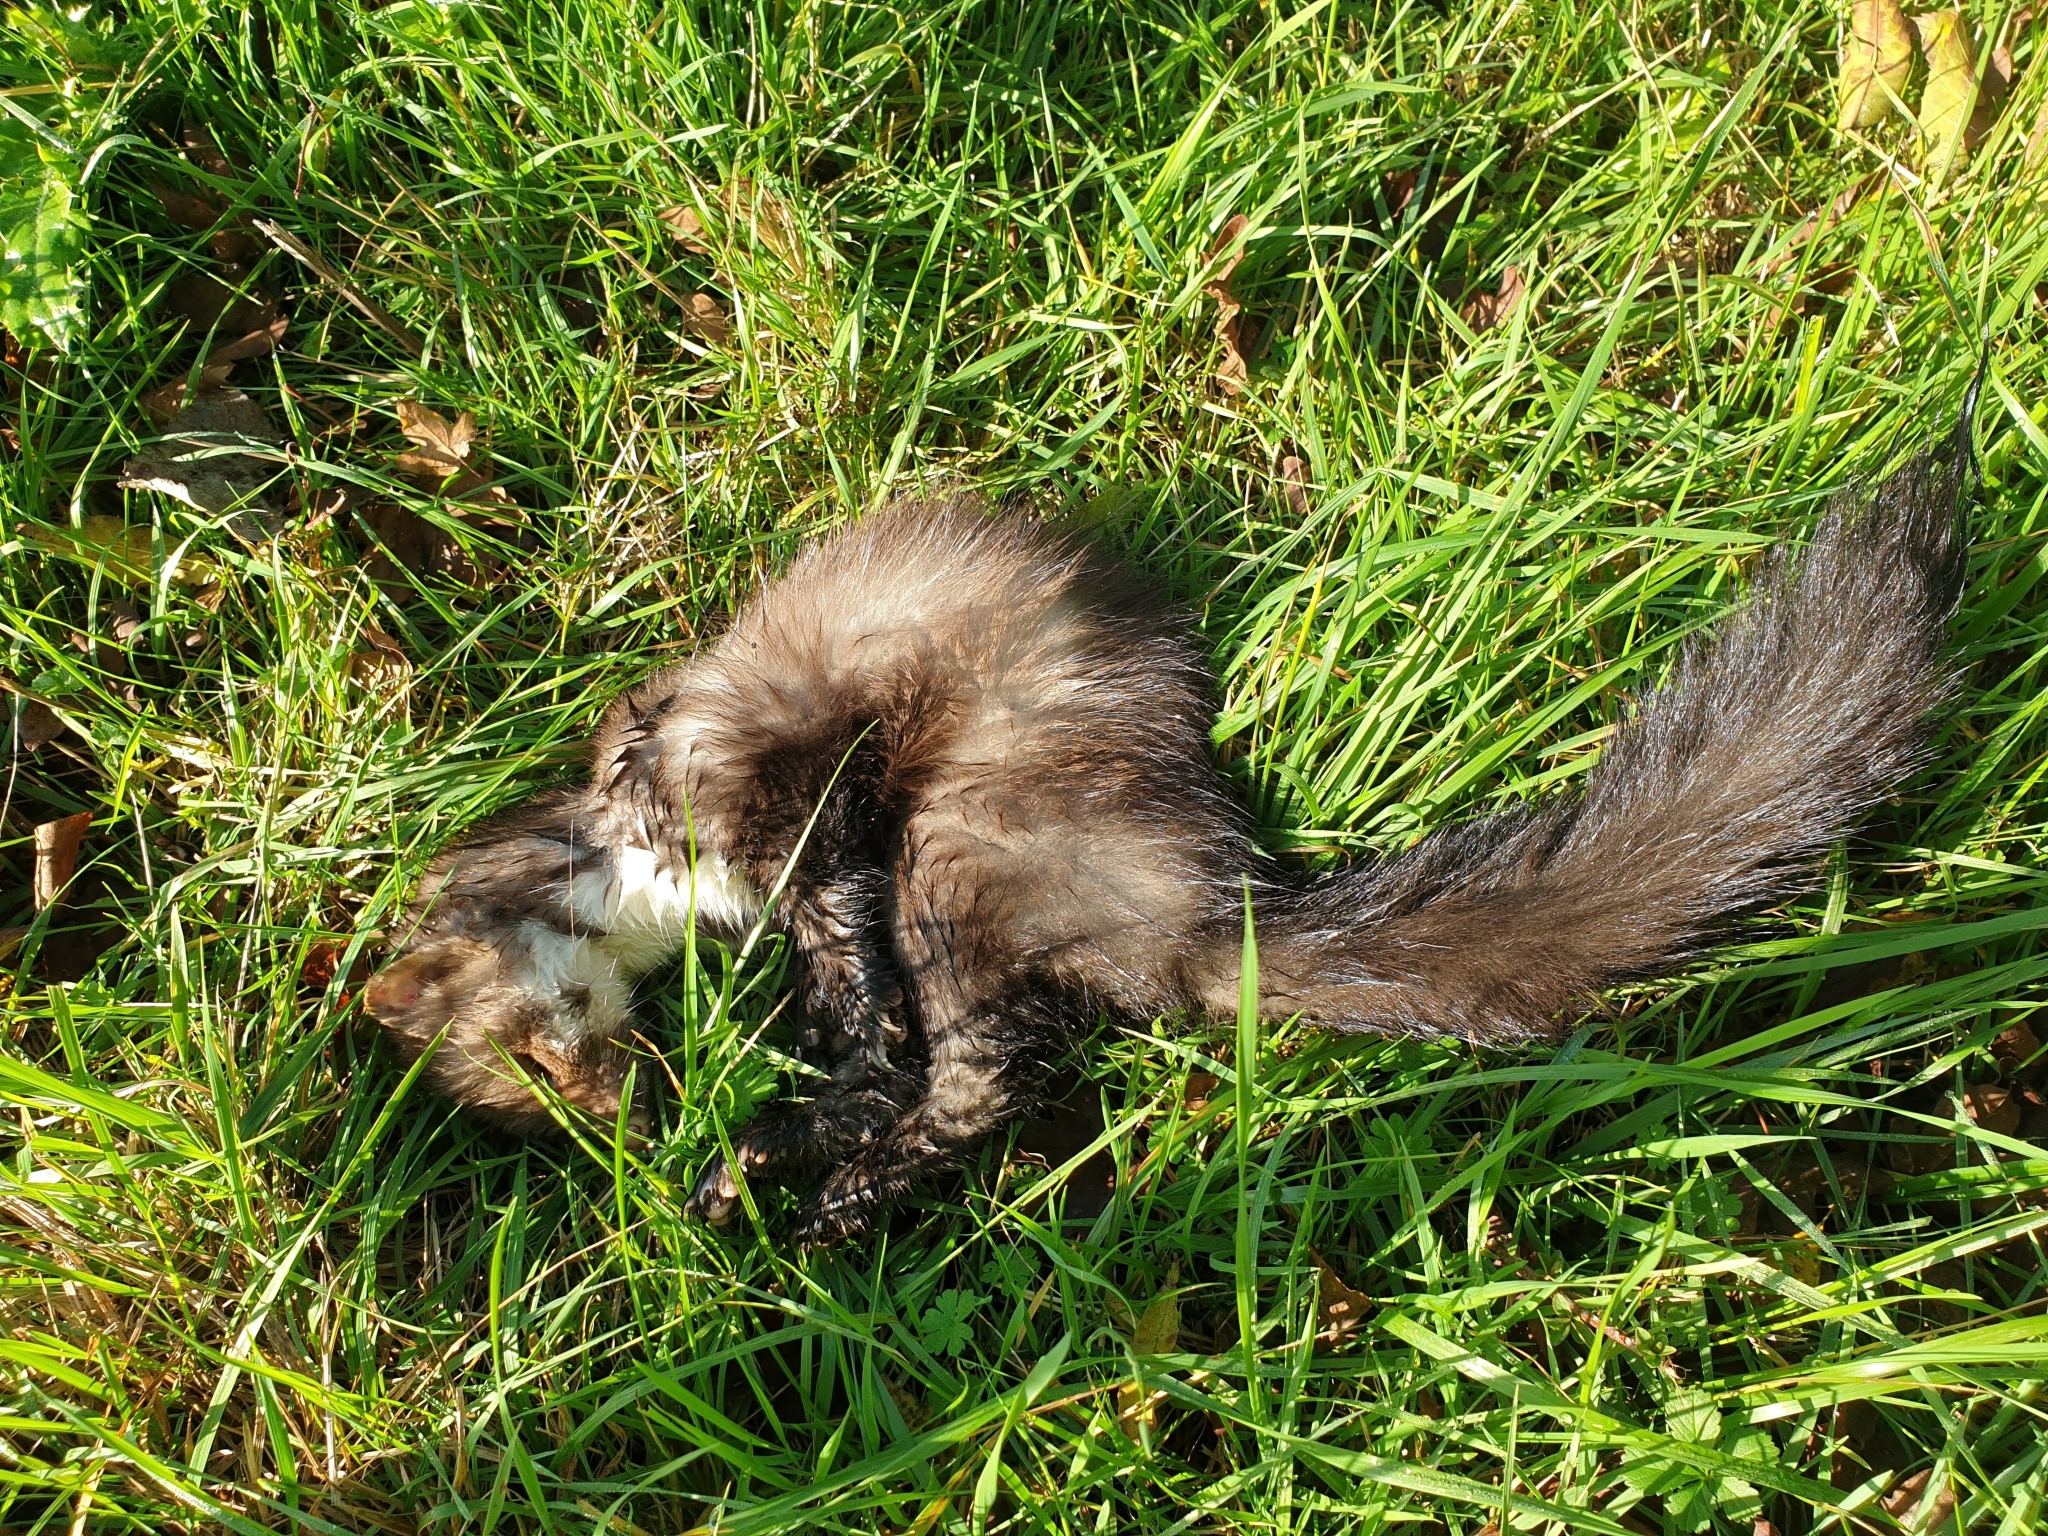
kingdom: Animalia
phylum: Chordata
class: Mammalia
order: Carnivora
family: Mustelidae
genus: Martes
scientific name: Martes foina
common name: Beech marten
